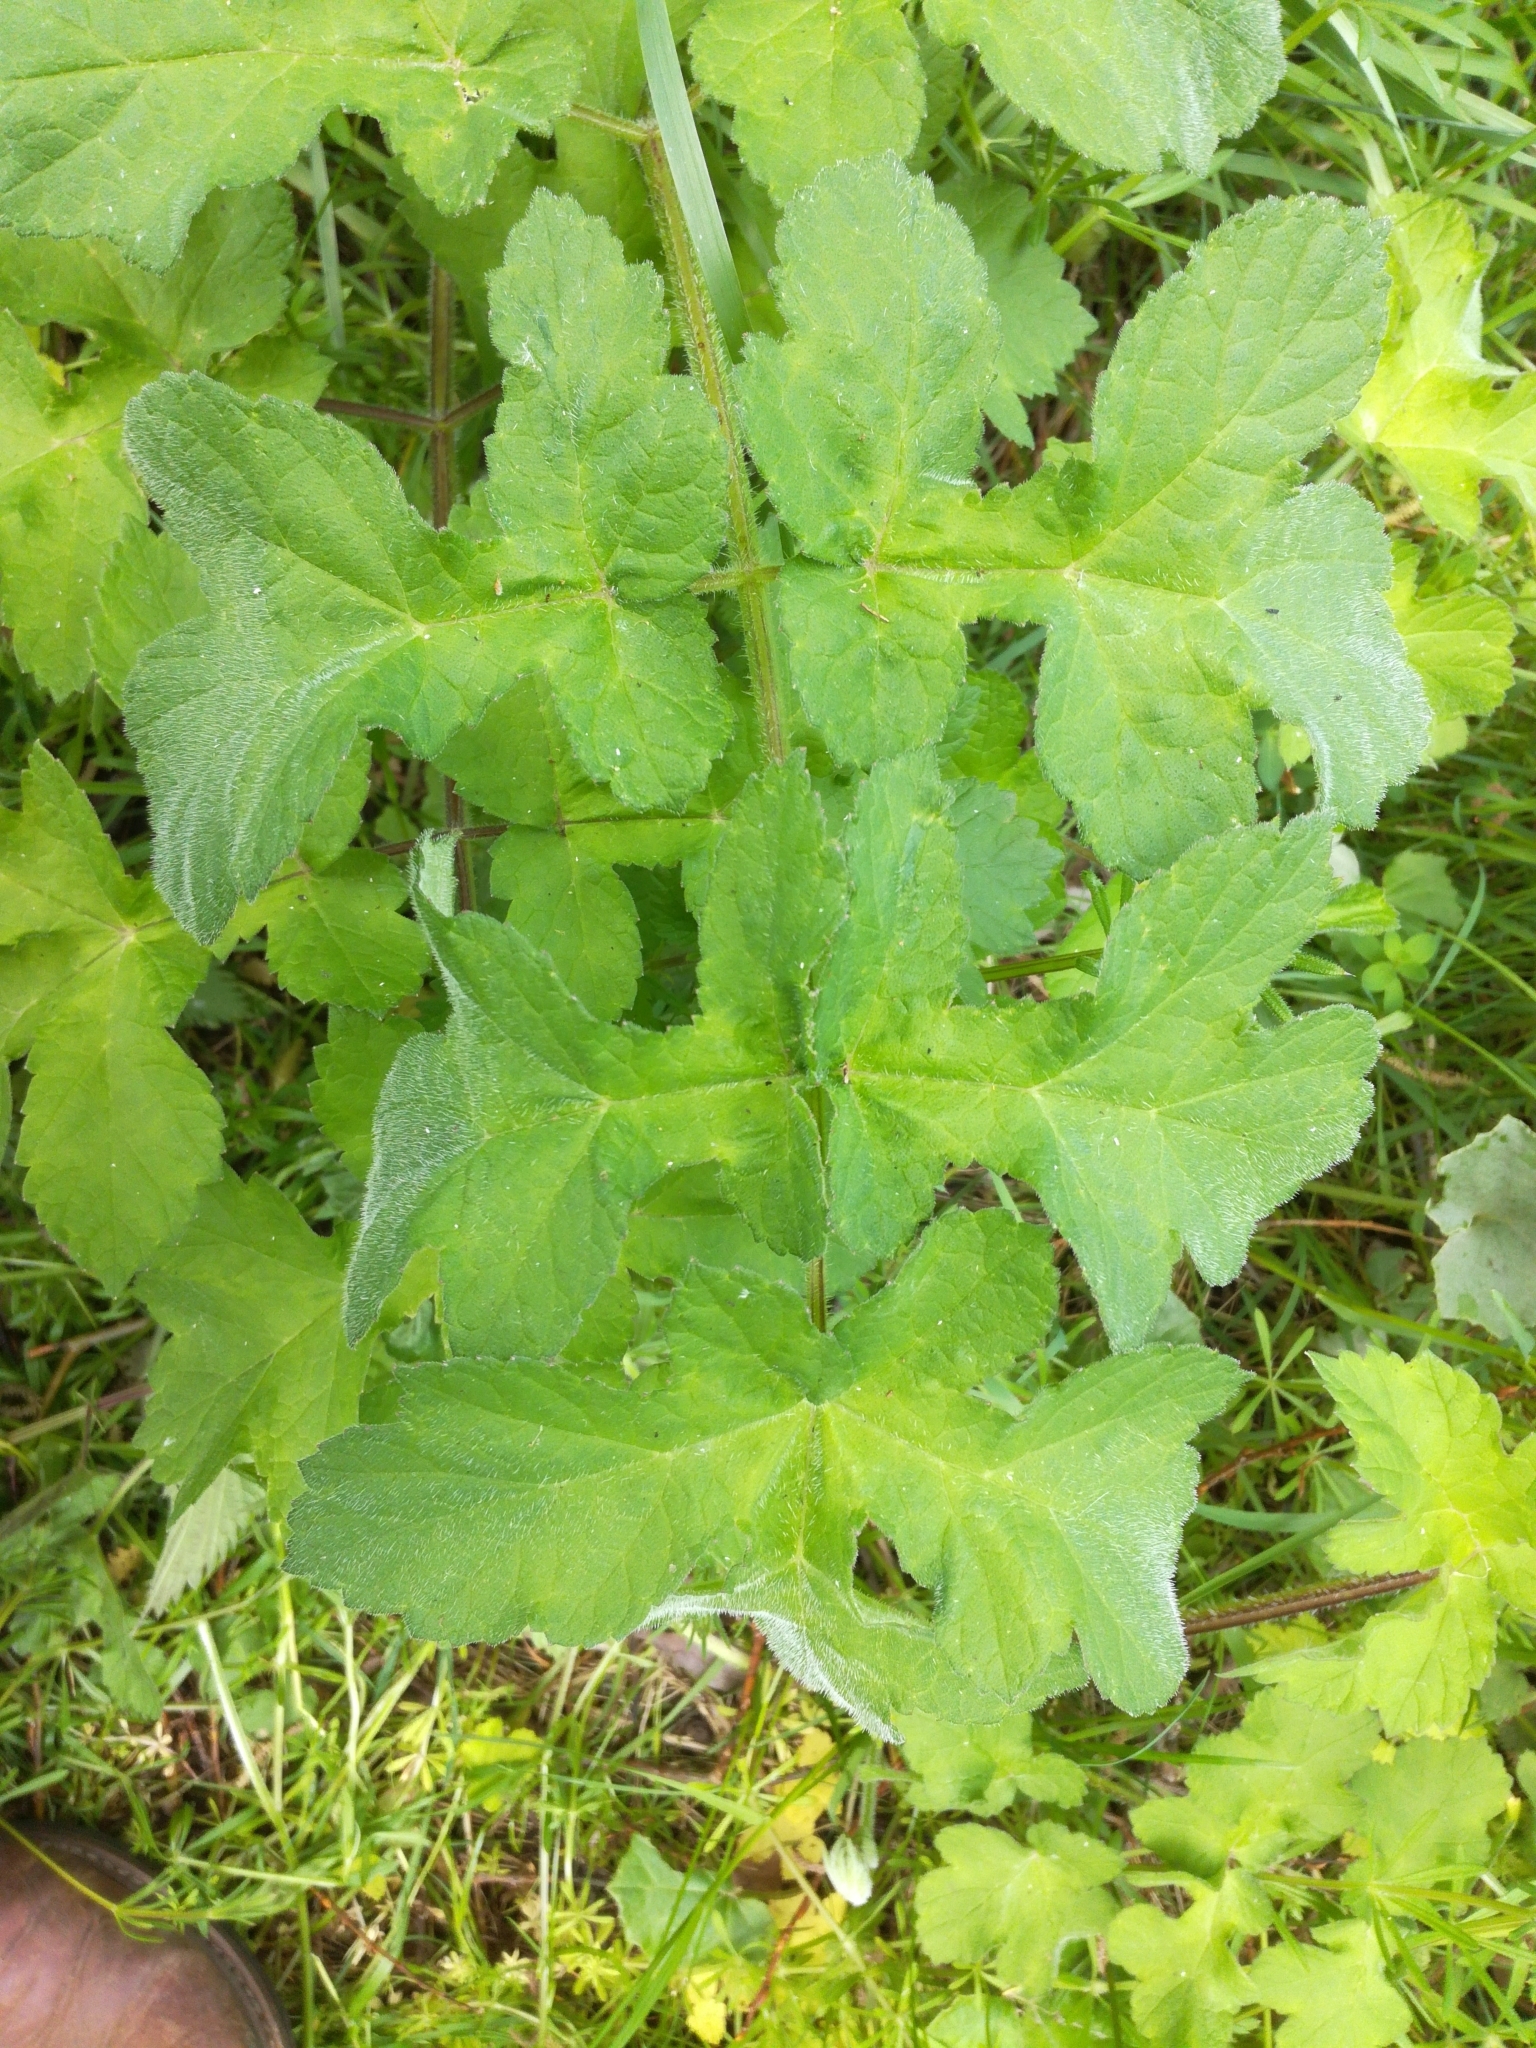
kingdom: Plantae
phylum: Tracheophyta
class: Magnoliopsida
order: Apiales
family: Apiaceae
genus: Heracleum
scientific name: Heracleum sphondylium
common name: Hogweed
